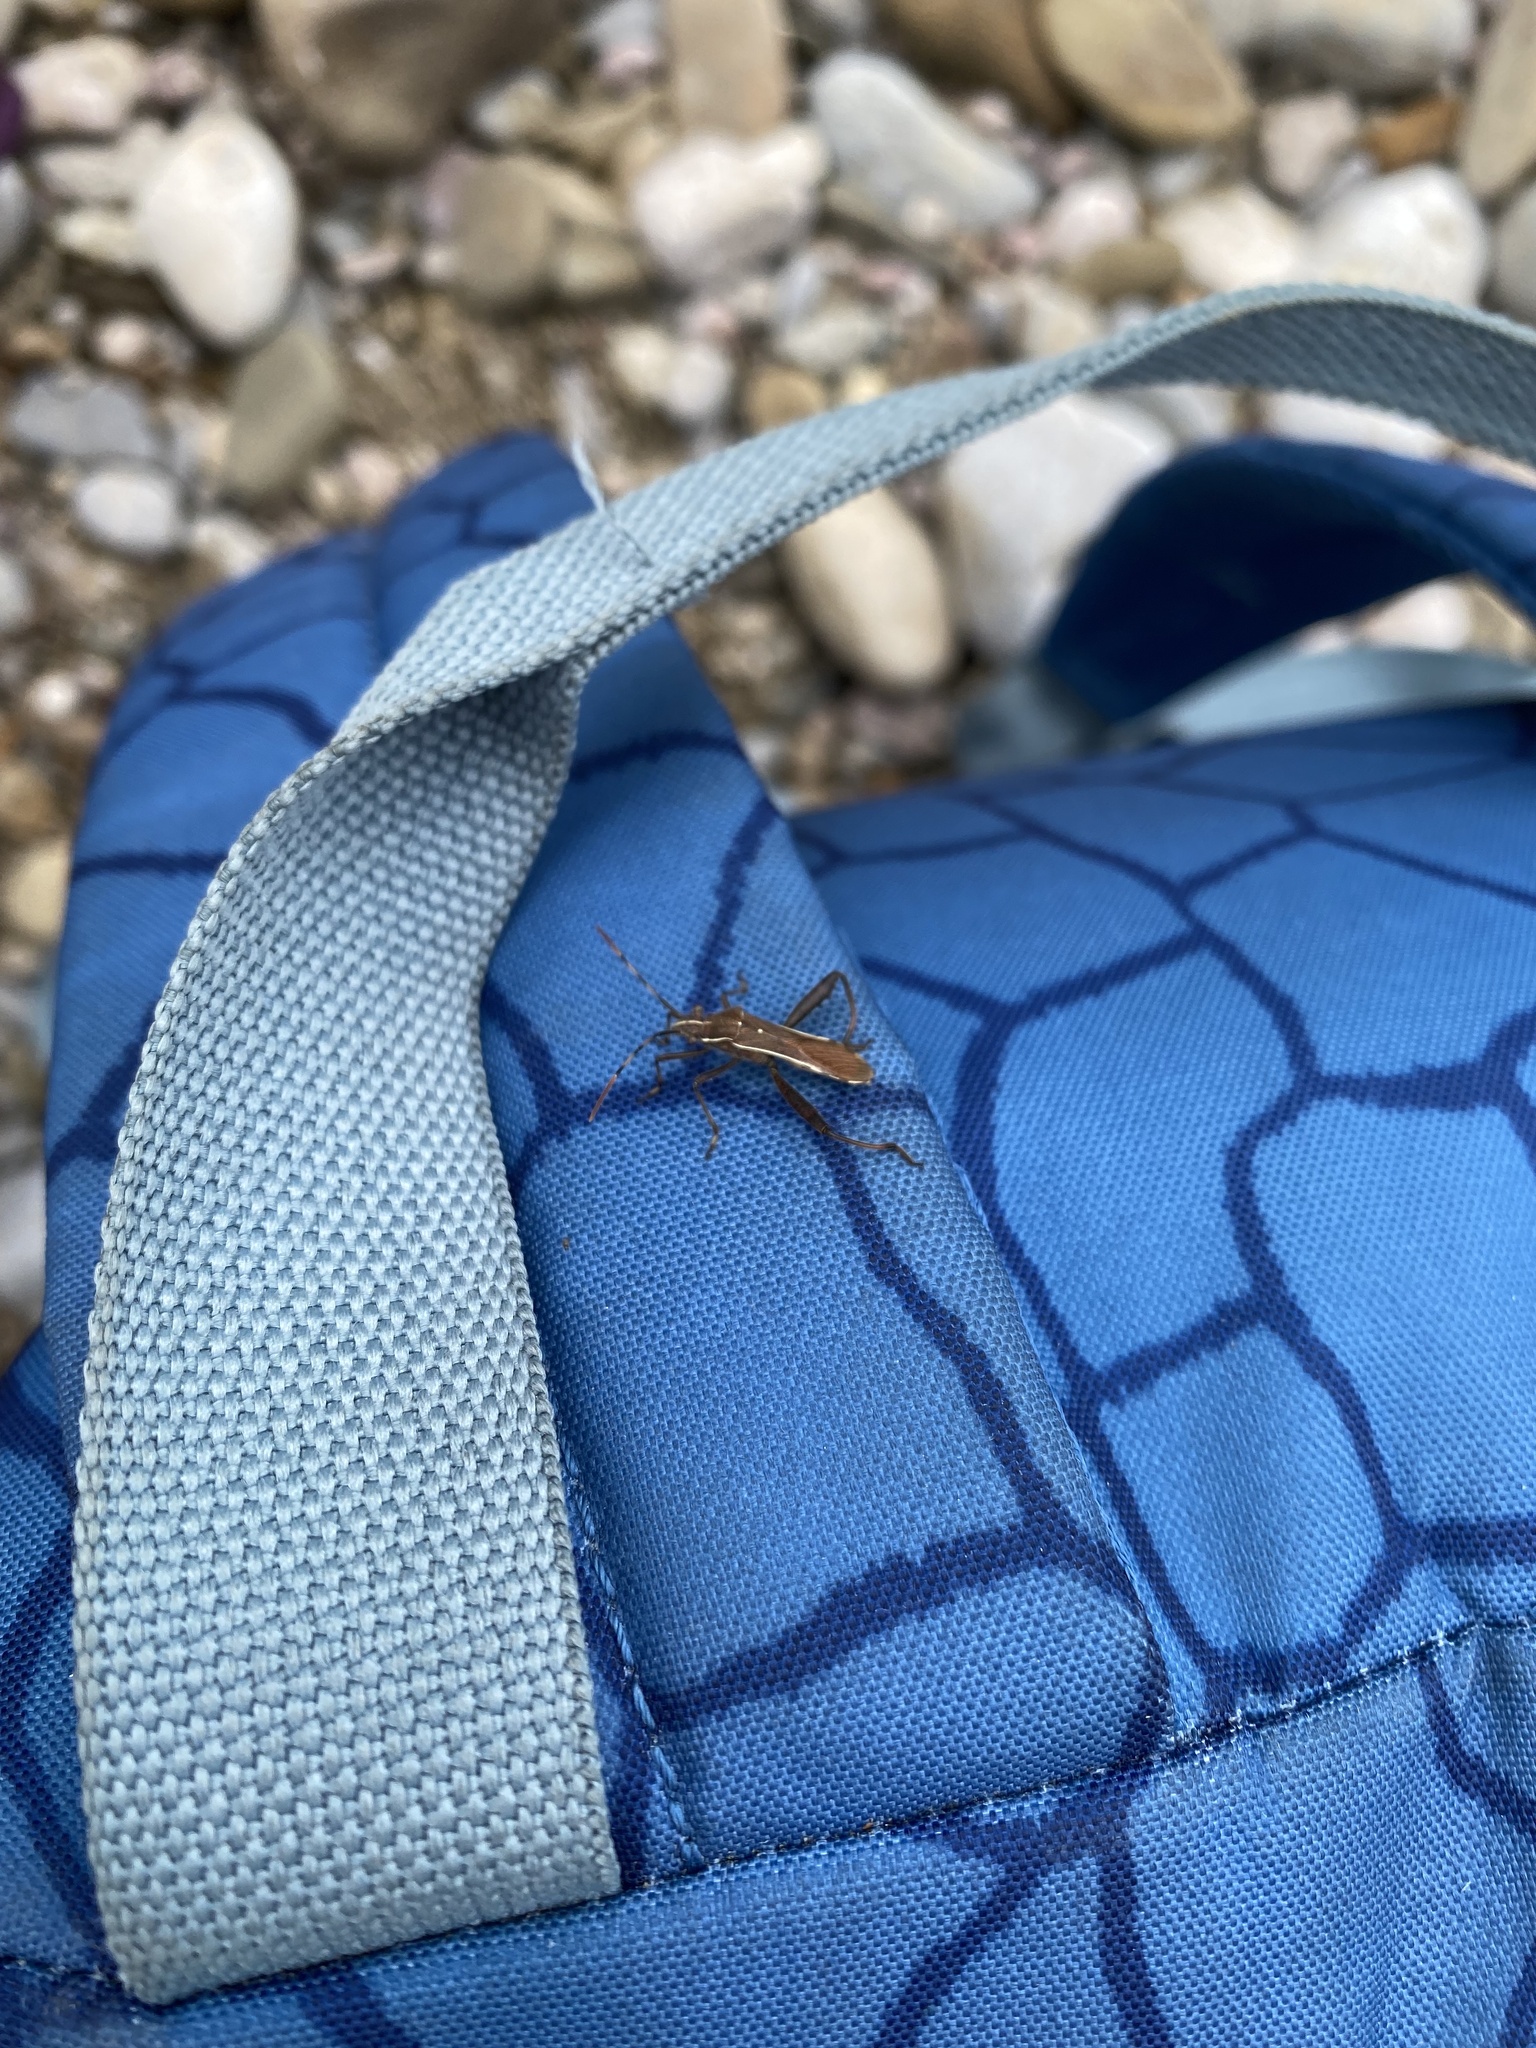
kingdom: Animalia
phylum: Arthropoda
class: Insecta
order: Hemiptera
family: Alydidae
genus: Camptopus
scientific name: Camptopus lateralis
